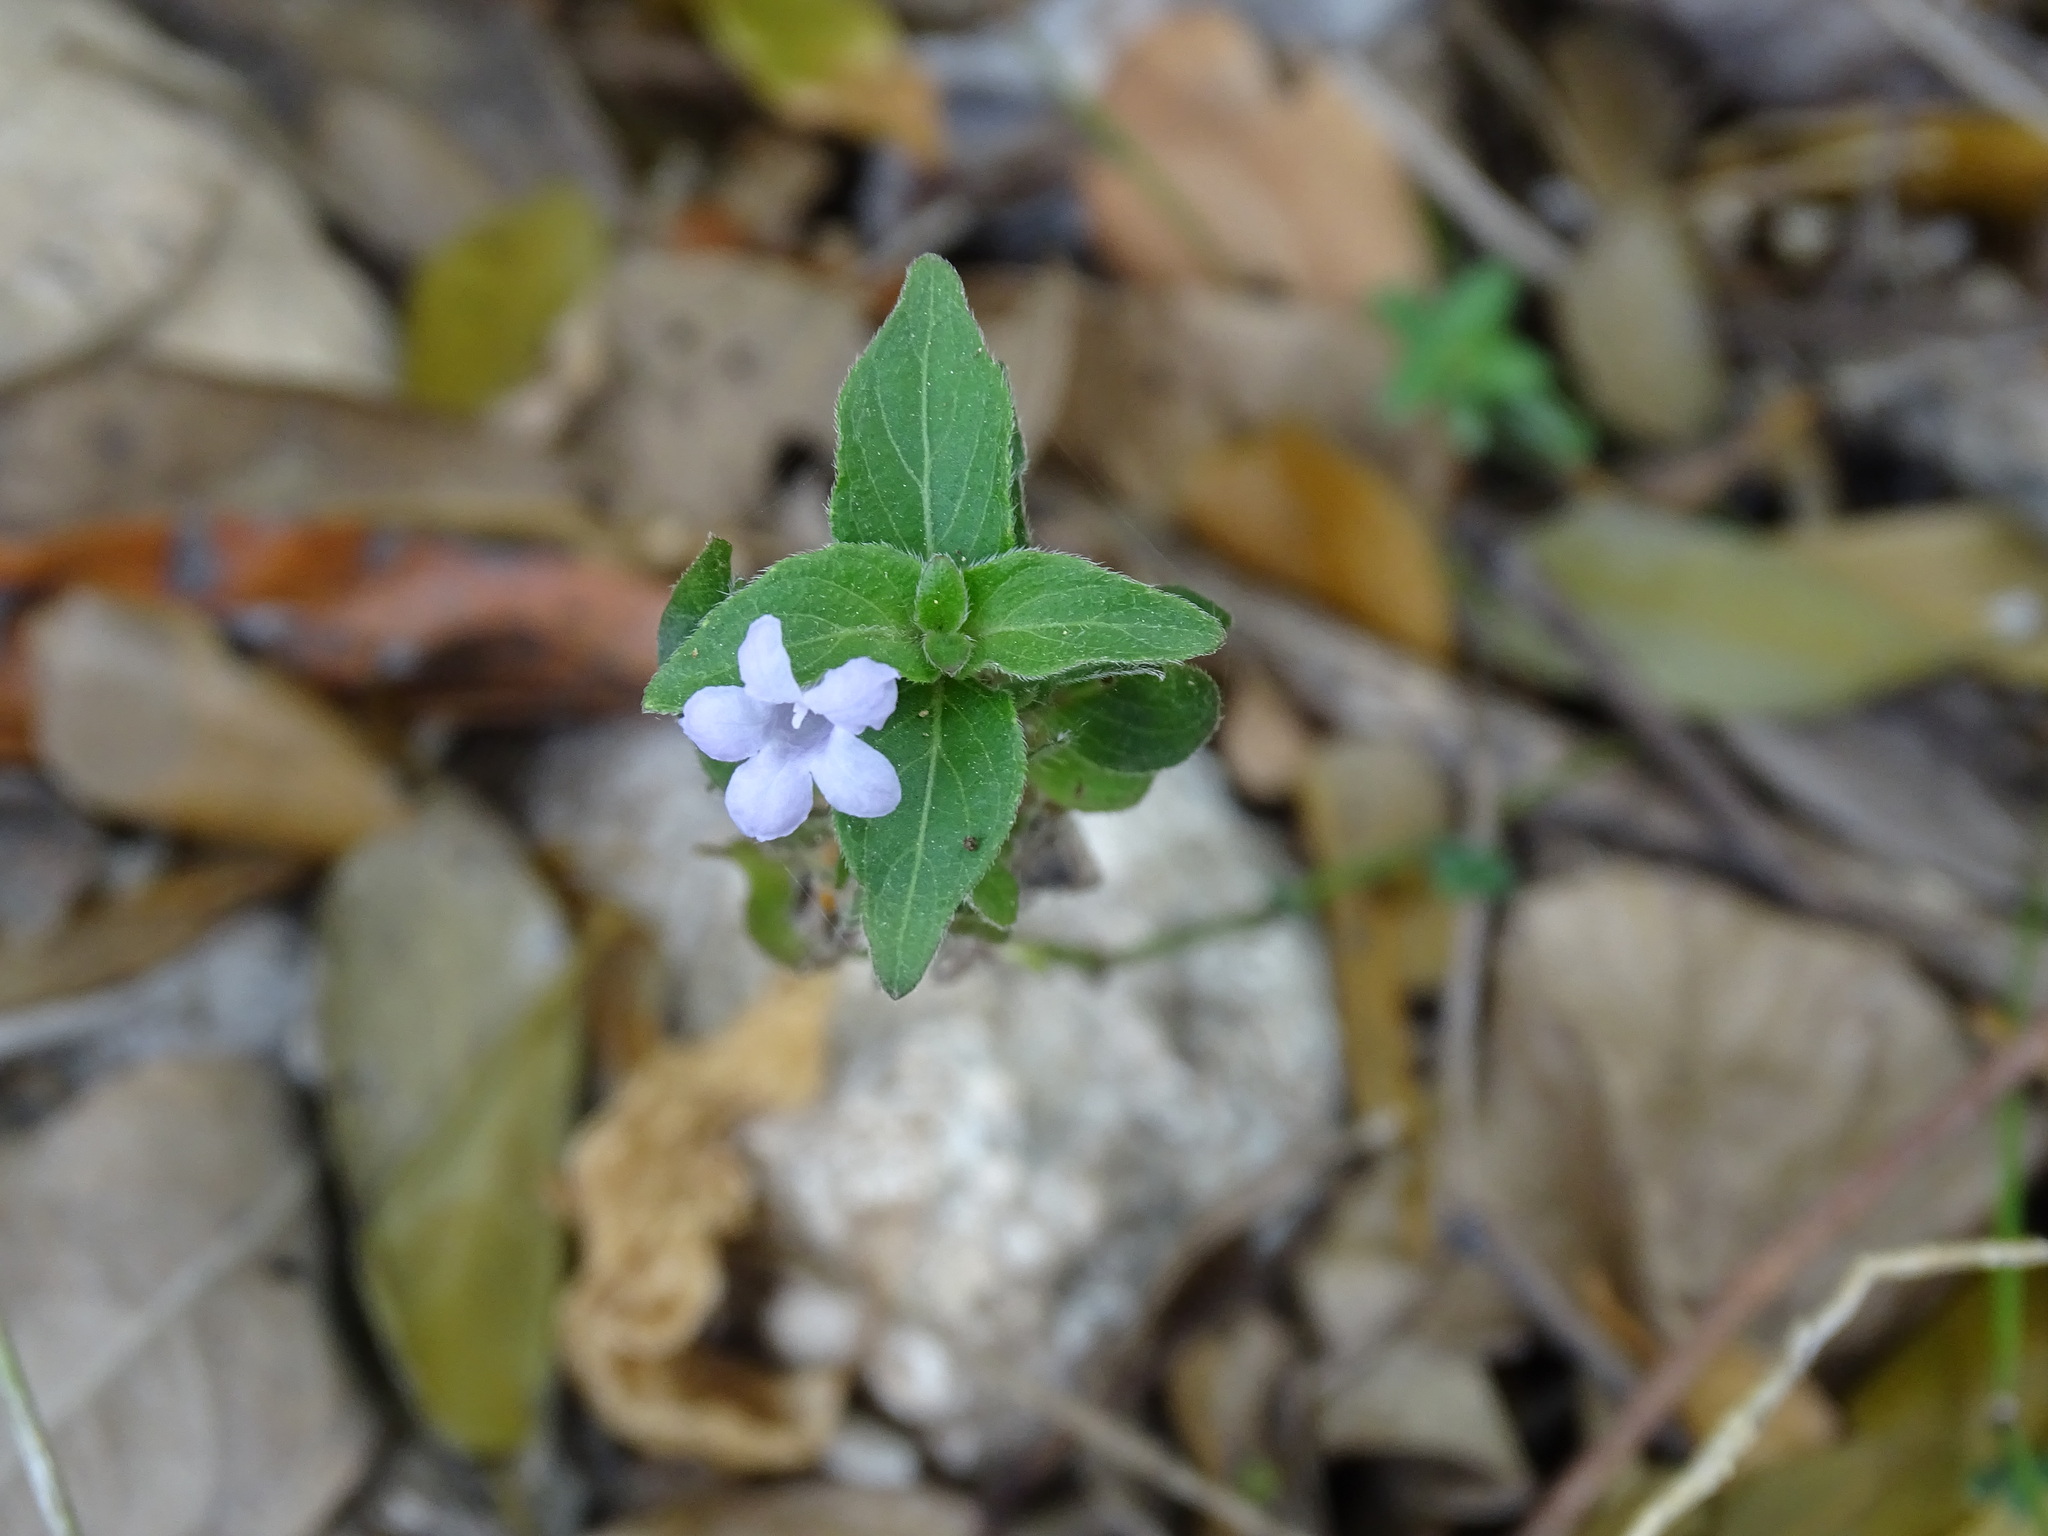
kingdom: Plantae
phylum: Tracheophyta
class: Magnoliopsida
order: Lamiales
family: Acanthaceae
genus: Ruellia
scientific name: Ruellia blechum
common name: Browne's blechum
